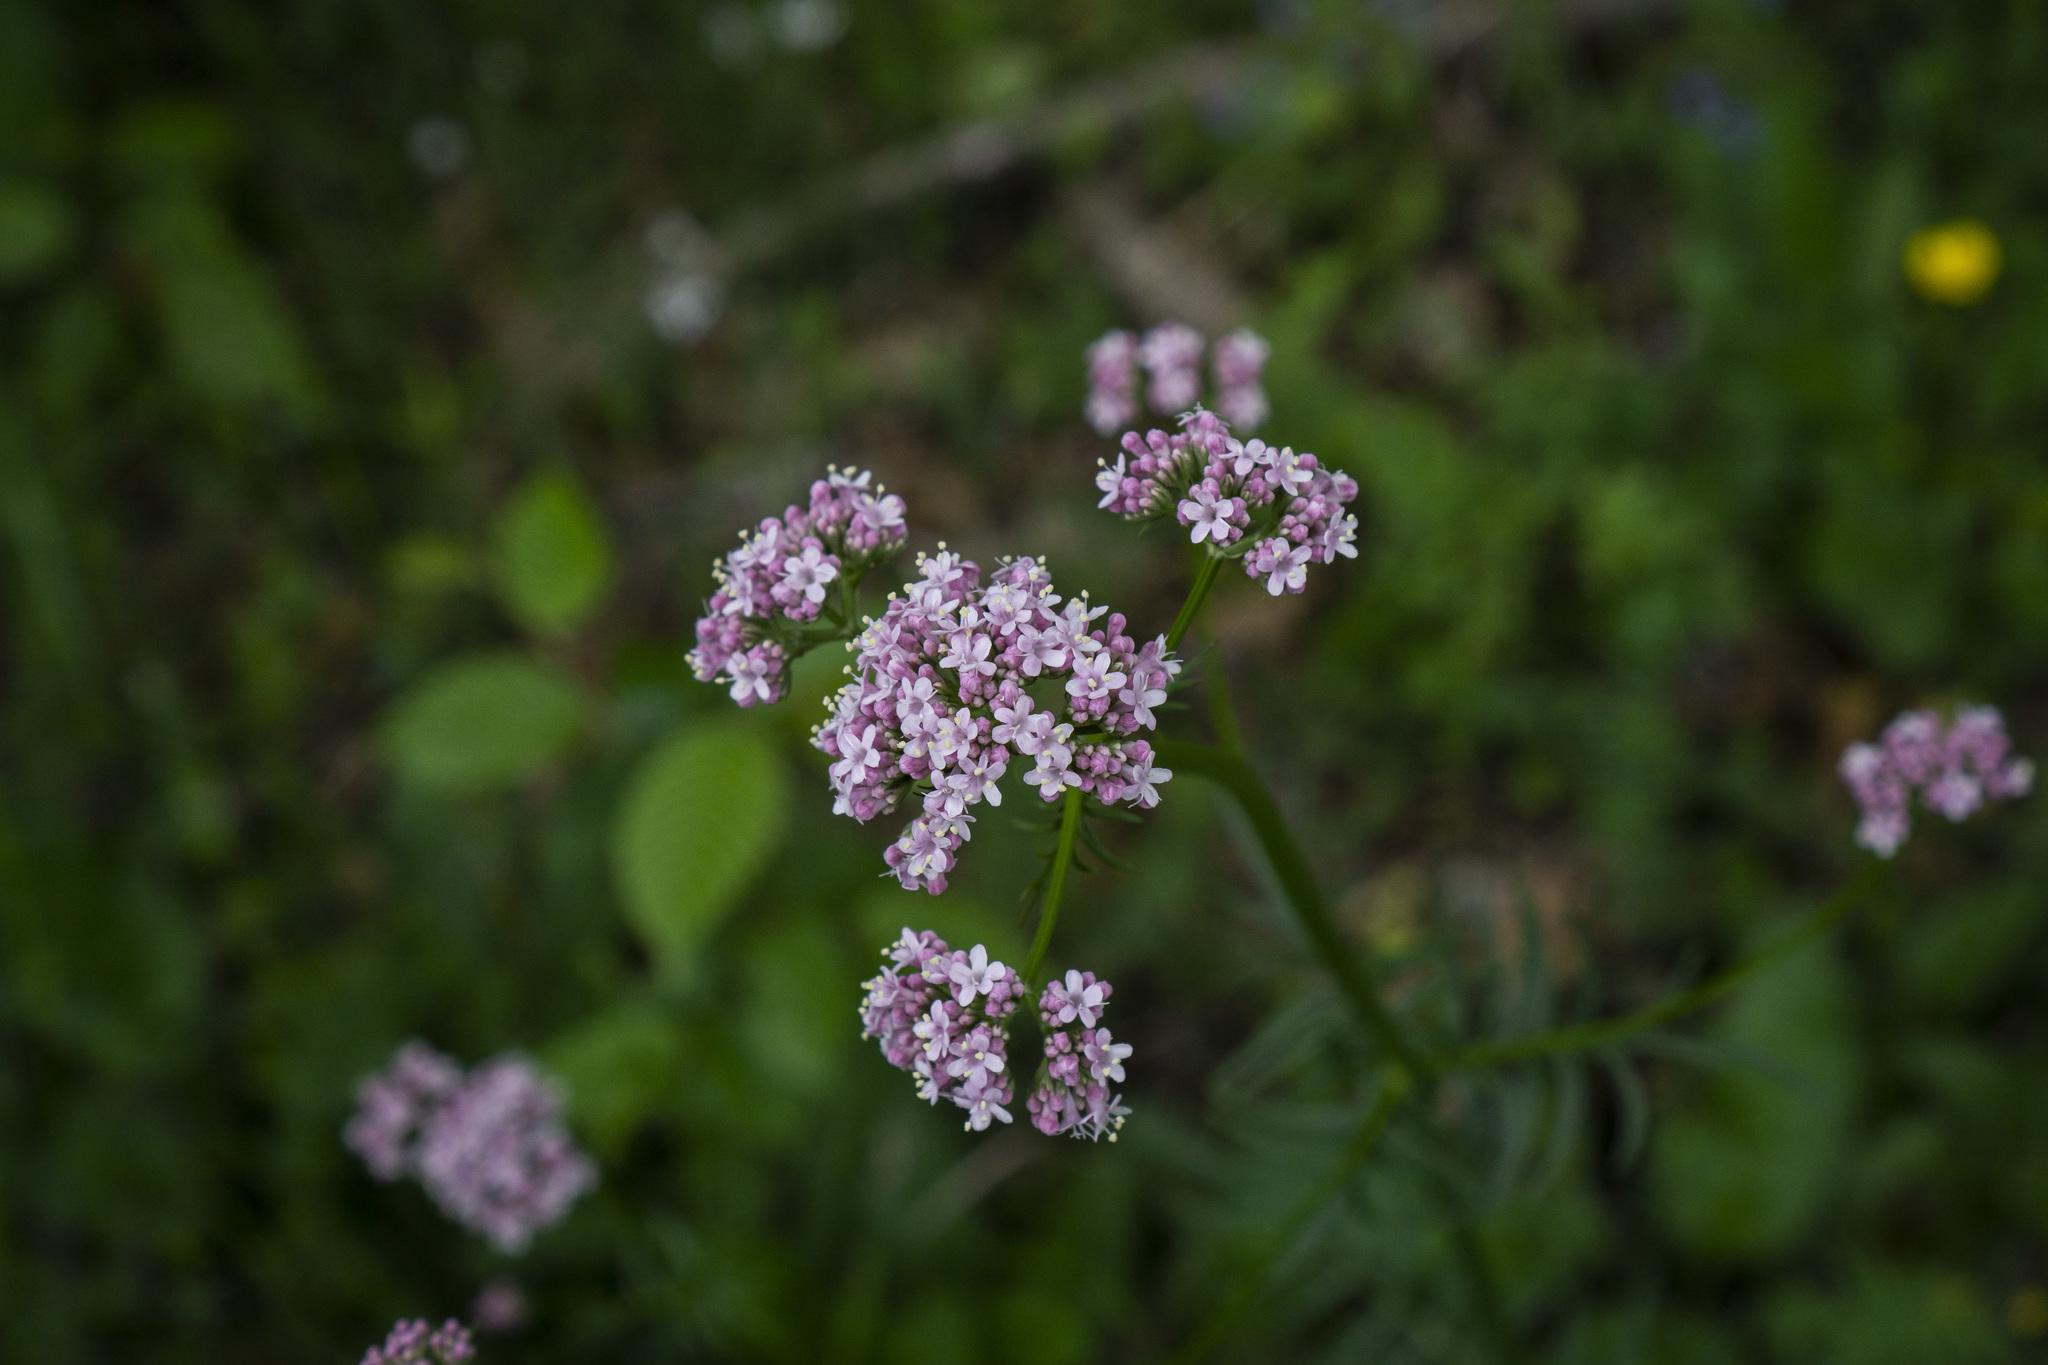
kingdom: Plantae
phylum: Tracheophyta
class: Magnoliopsida
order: Dipsacales
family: Caprifoliaceae
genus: Valeriana
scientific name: Valeriana officinalis
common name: Common valerian
